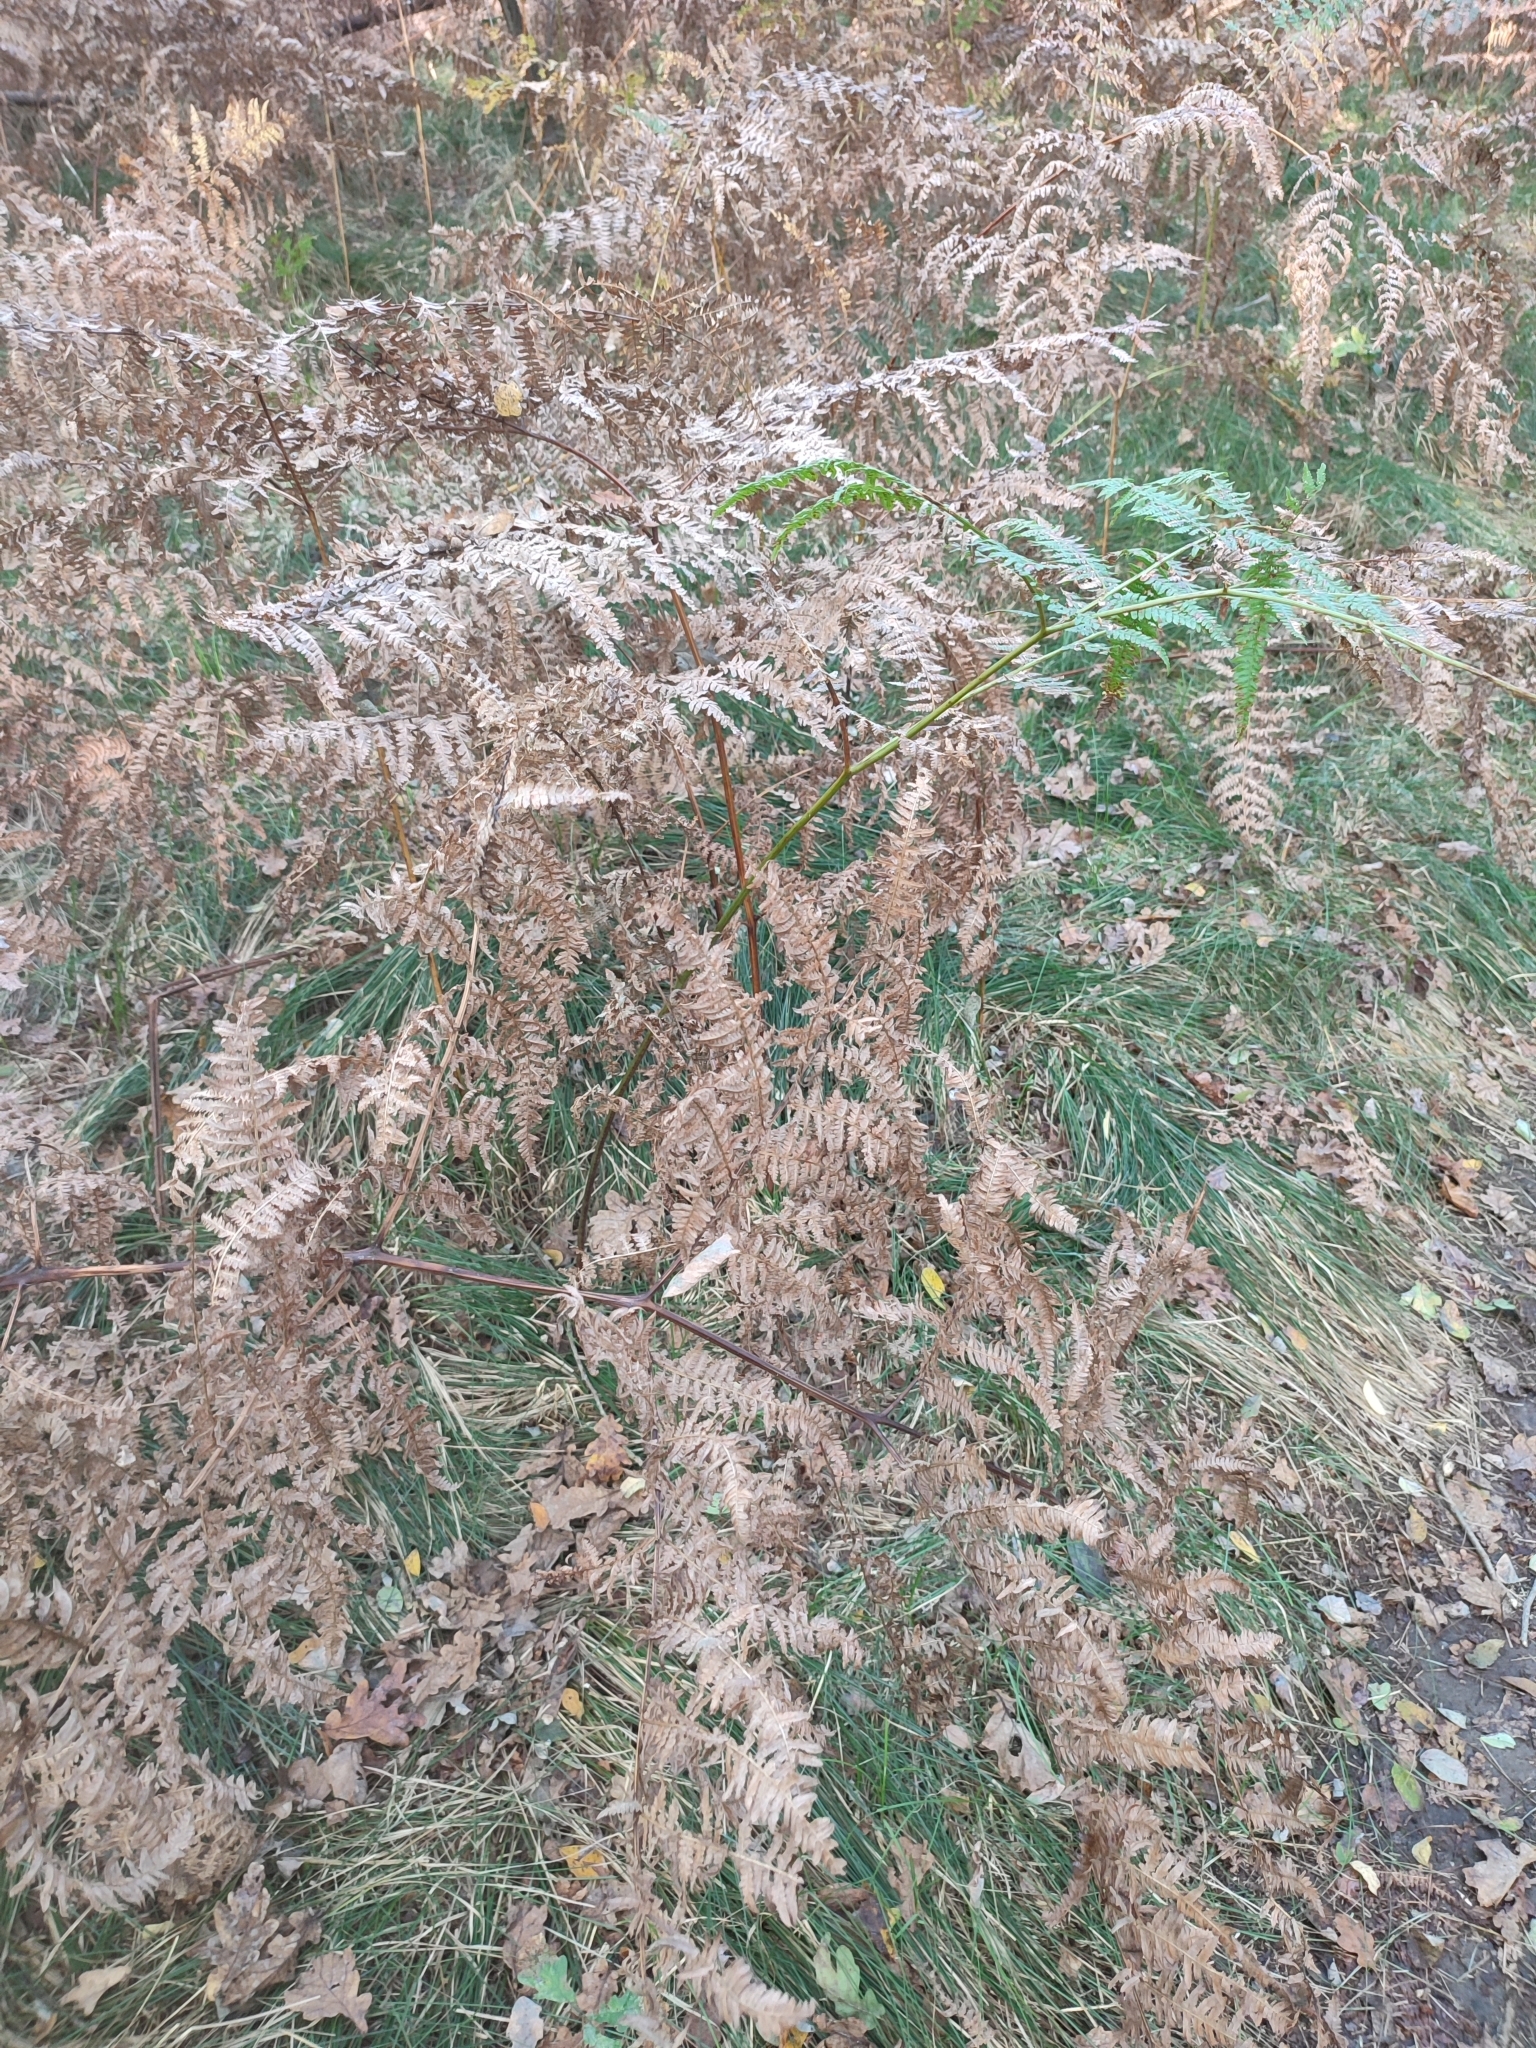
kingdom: Plantae
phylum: Tracheophyta
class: Polypodiopsida
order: Polypodiales
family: Dennstaedtiaceae
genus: Pteridium
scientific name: Pteridium aquilinum
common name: Bracken
